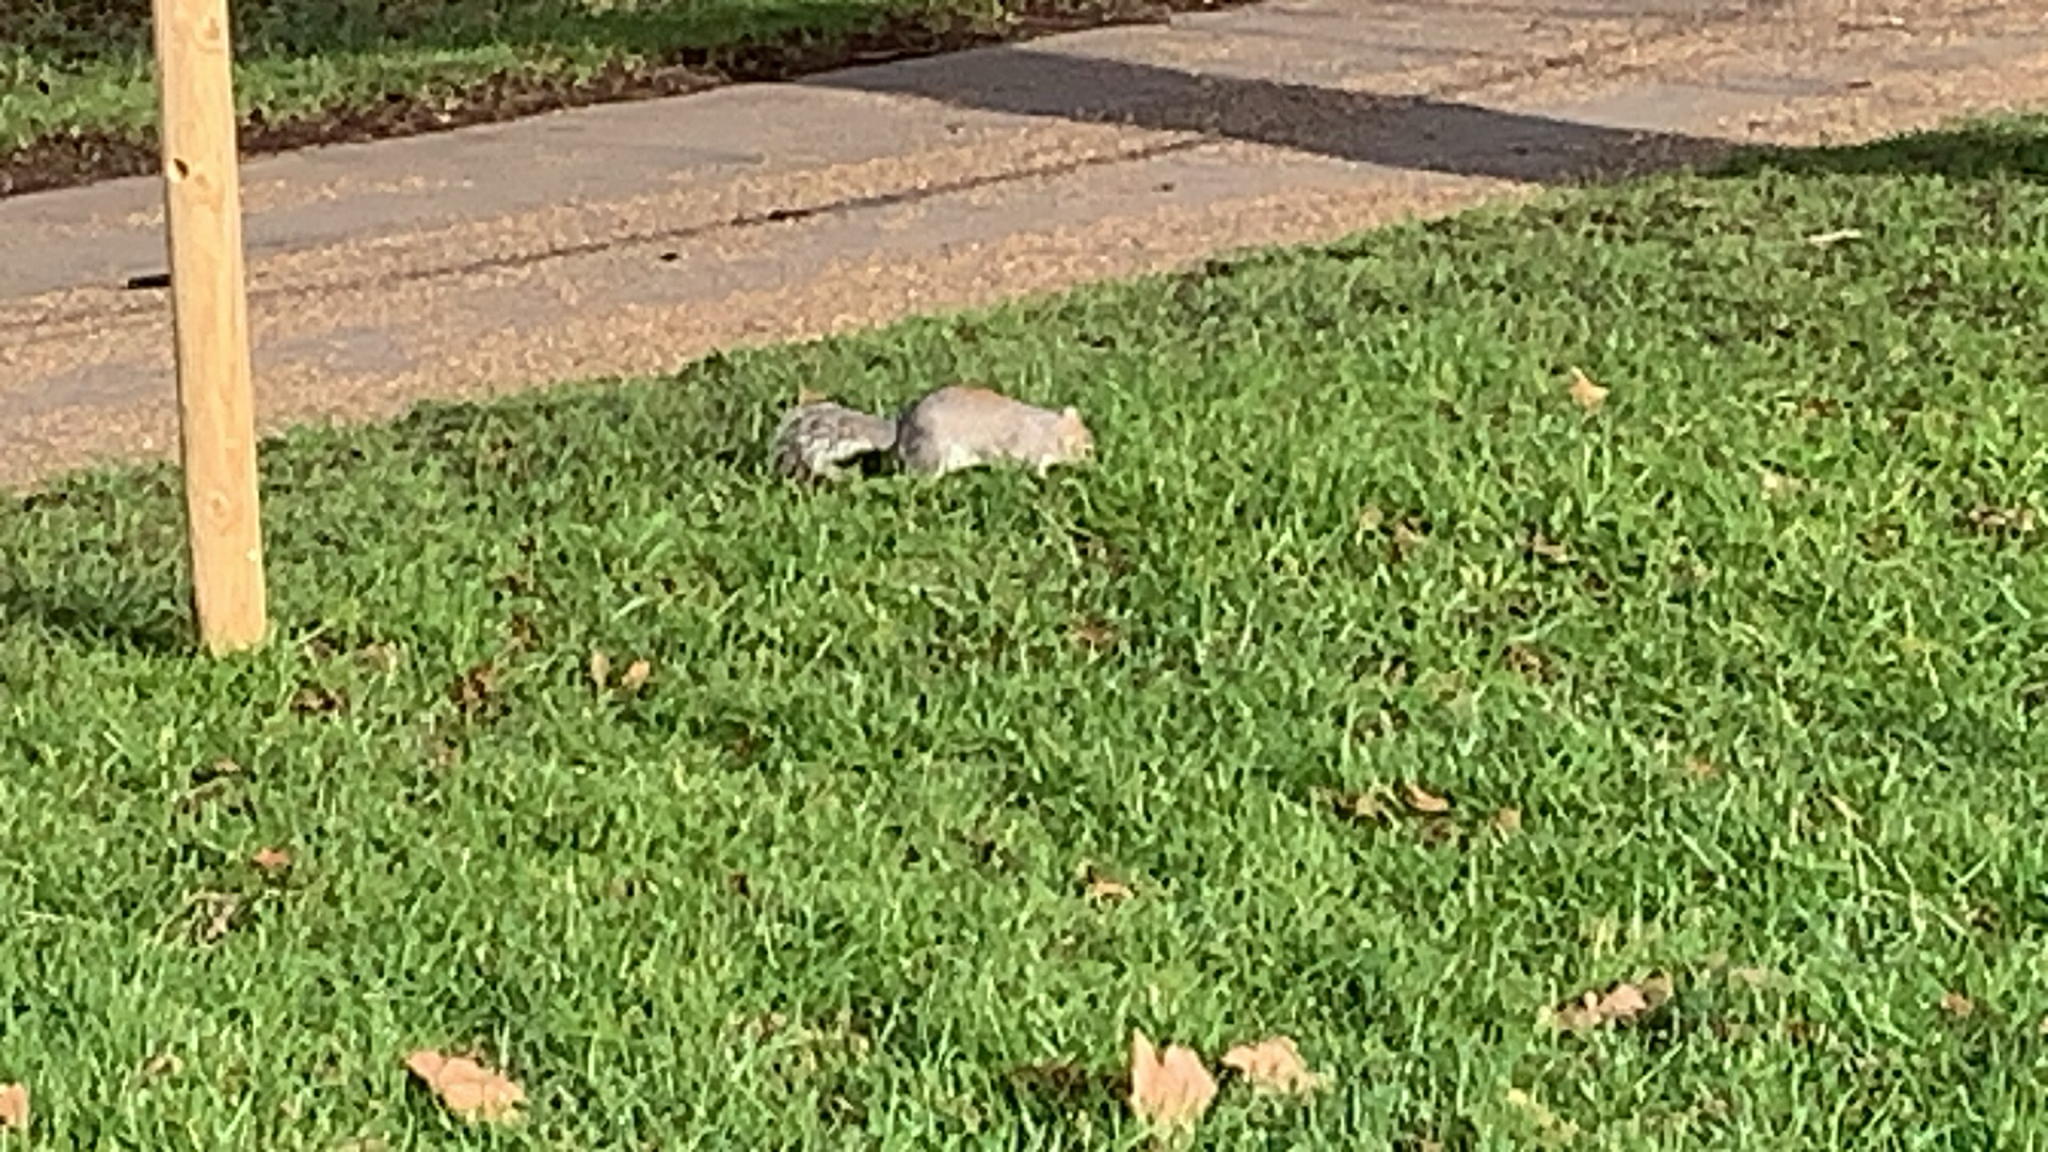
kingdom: Animalia
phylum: Chordata
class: Mammalia
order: Rodentia
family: Sciuridae
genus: Sciurus
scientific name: Sciurus carolinensis
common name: Eastern gray squirrel
